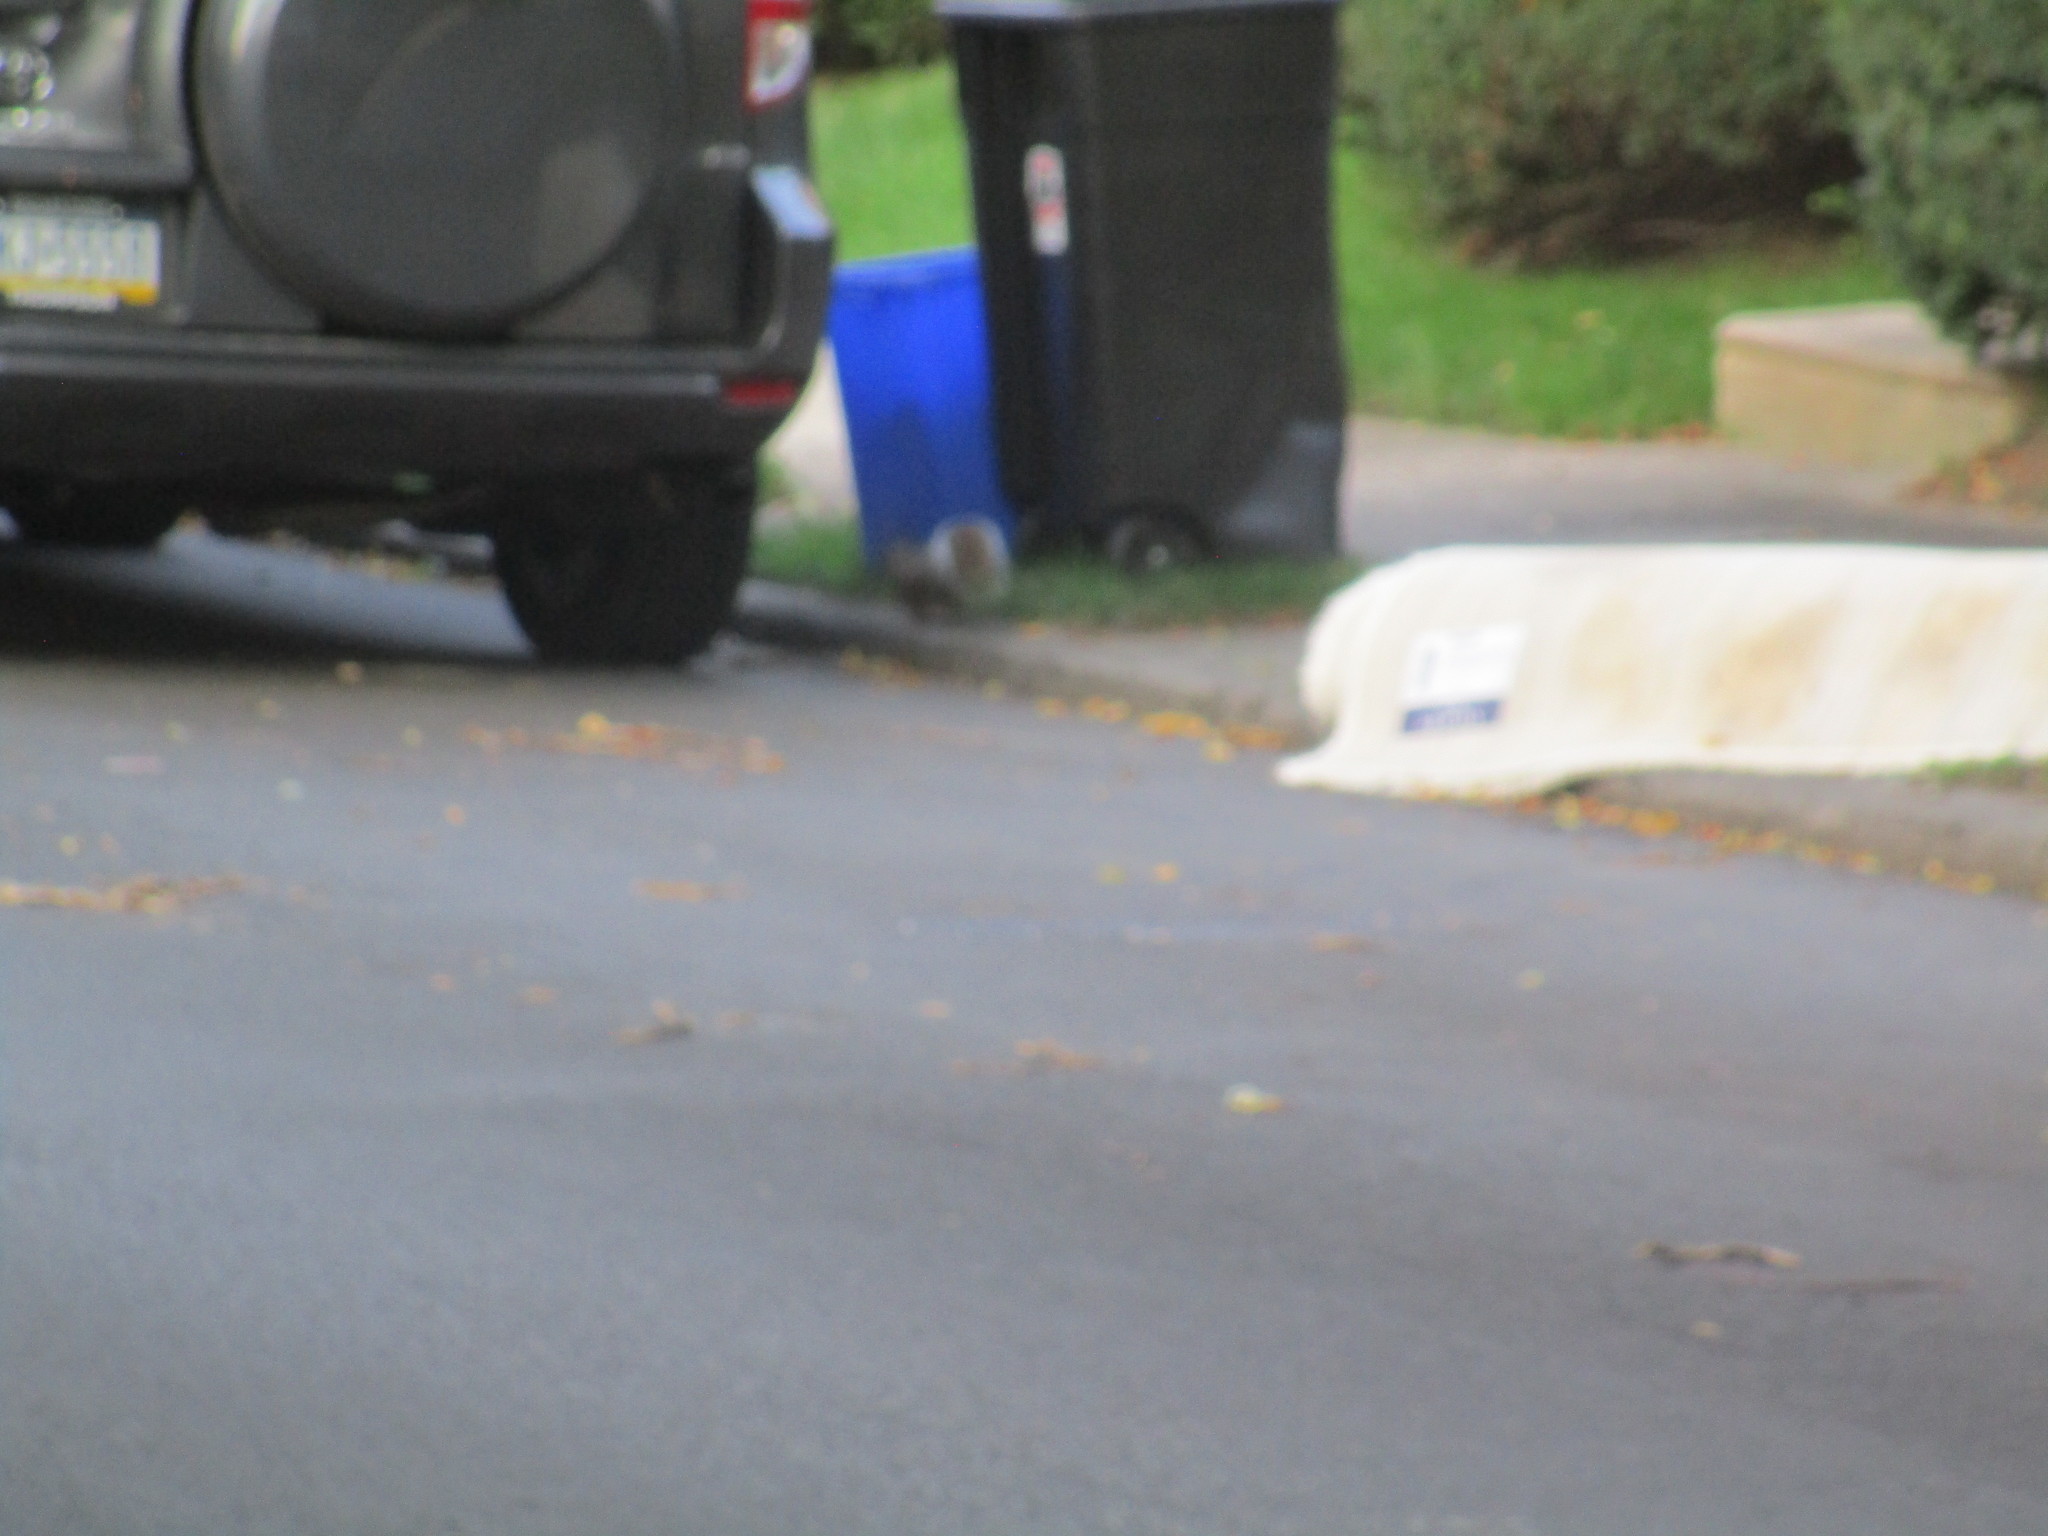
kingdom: Animalia
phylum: Chordata
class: Mammalia
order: Rodentia
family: Sciuridae
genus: Sciurus
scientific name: Sciurus carolinensis
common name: Eastern gray squirrel
